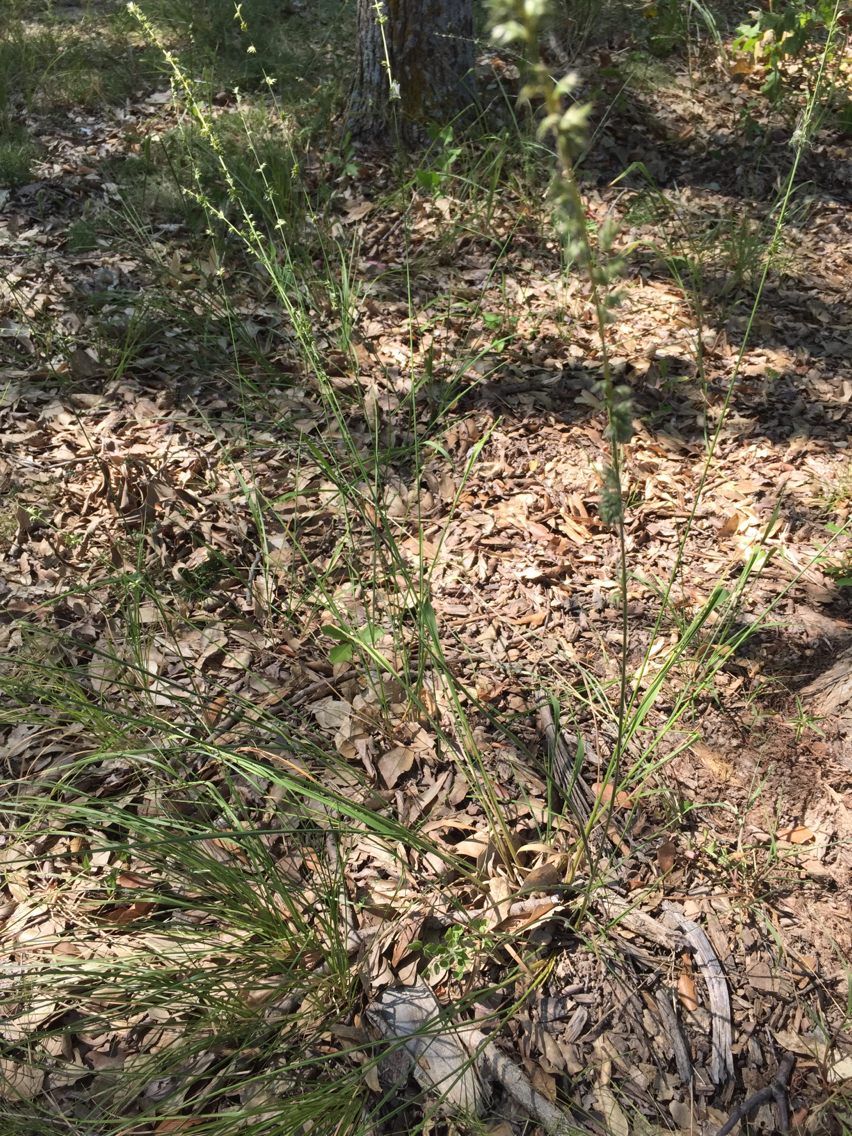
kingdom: Plantae
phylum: Tracheophyta
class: Liliopsida
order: Poales
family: Poaceae
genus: Chasmanthium
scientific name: Chasmanthium laxum
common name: Slender chasmanthium
